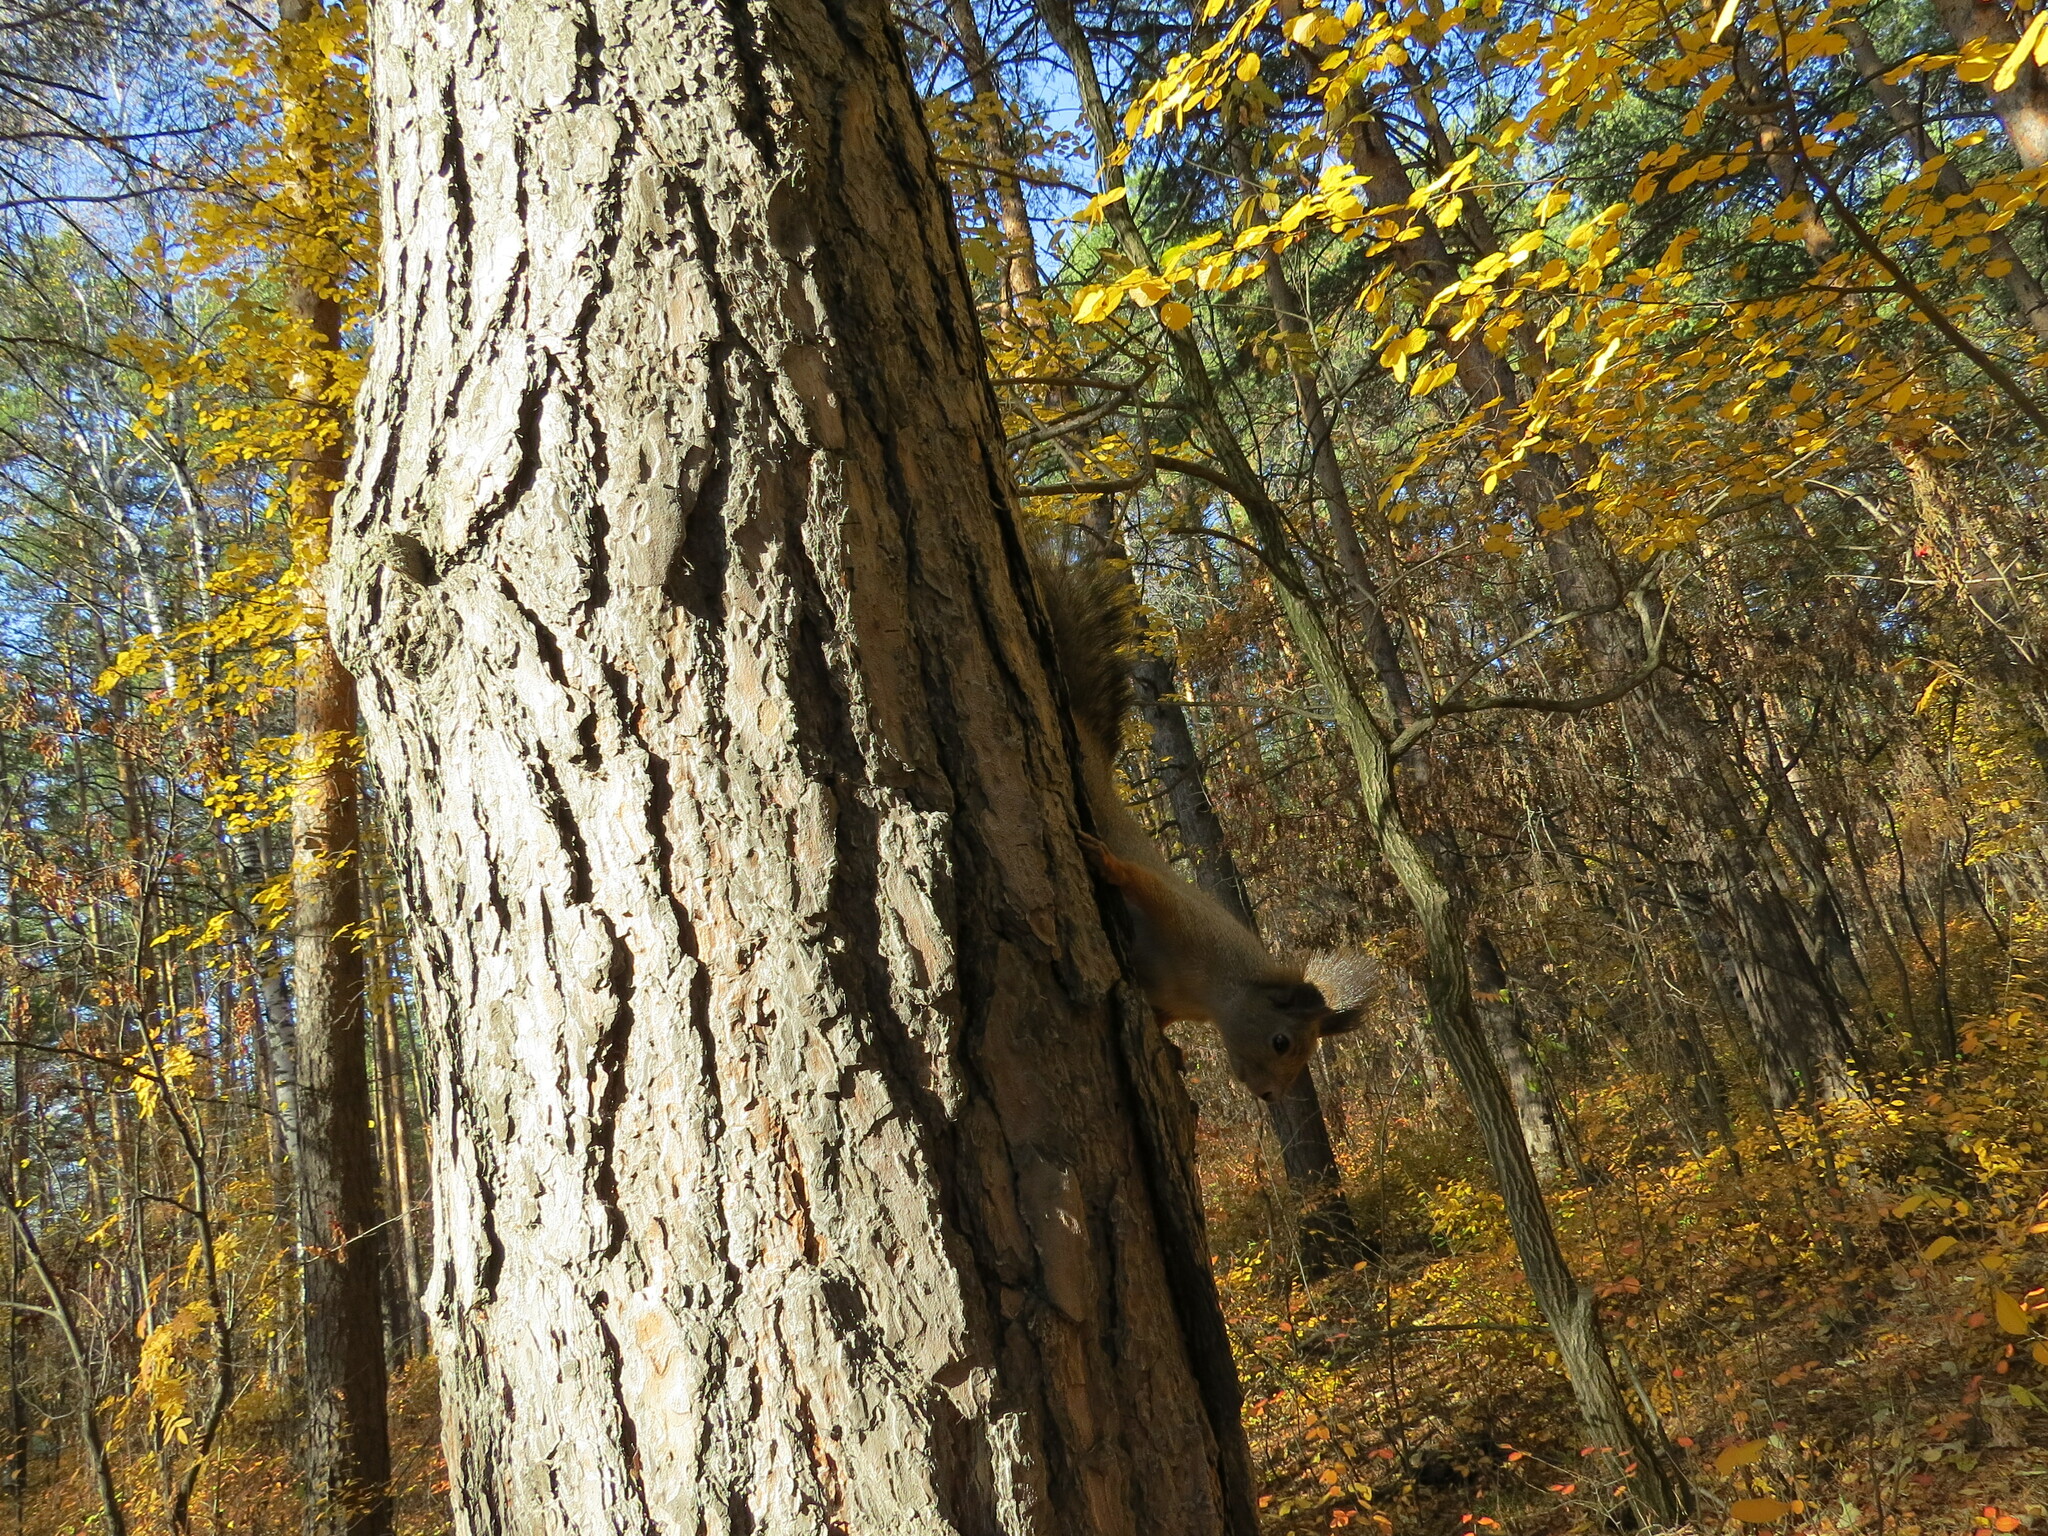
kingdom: Animalia
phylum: Chordata
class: Mammalia
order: Rodentia
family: Sciuridae
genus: Sciurus
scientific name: Sciurus vulgaris
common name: Eurasian red squirrel
